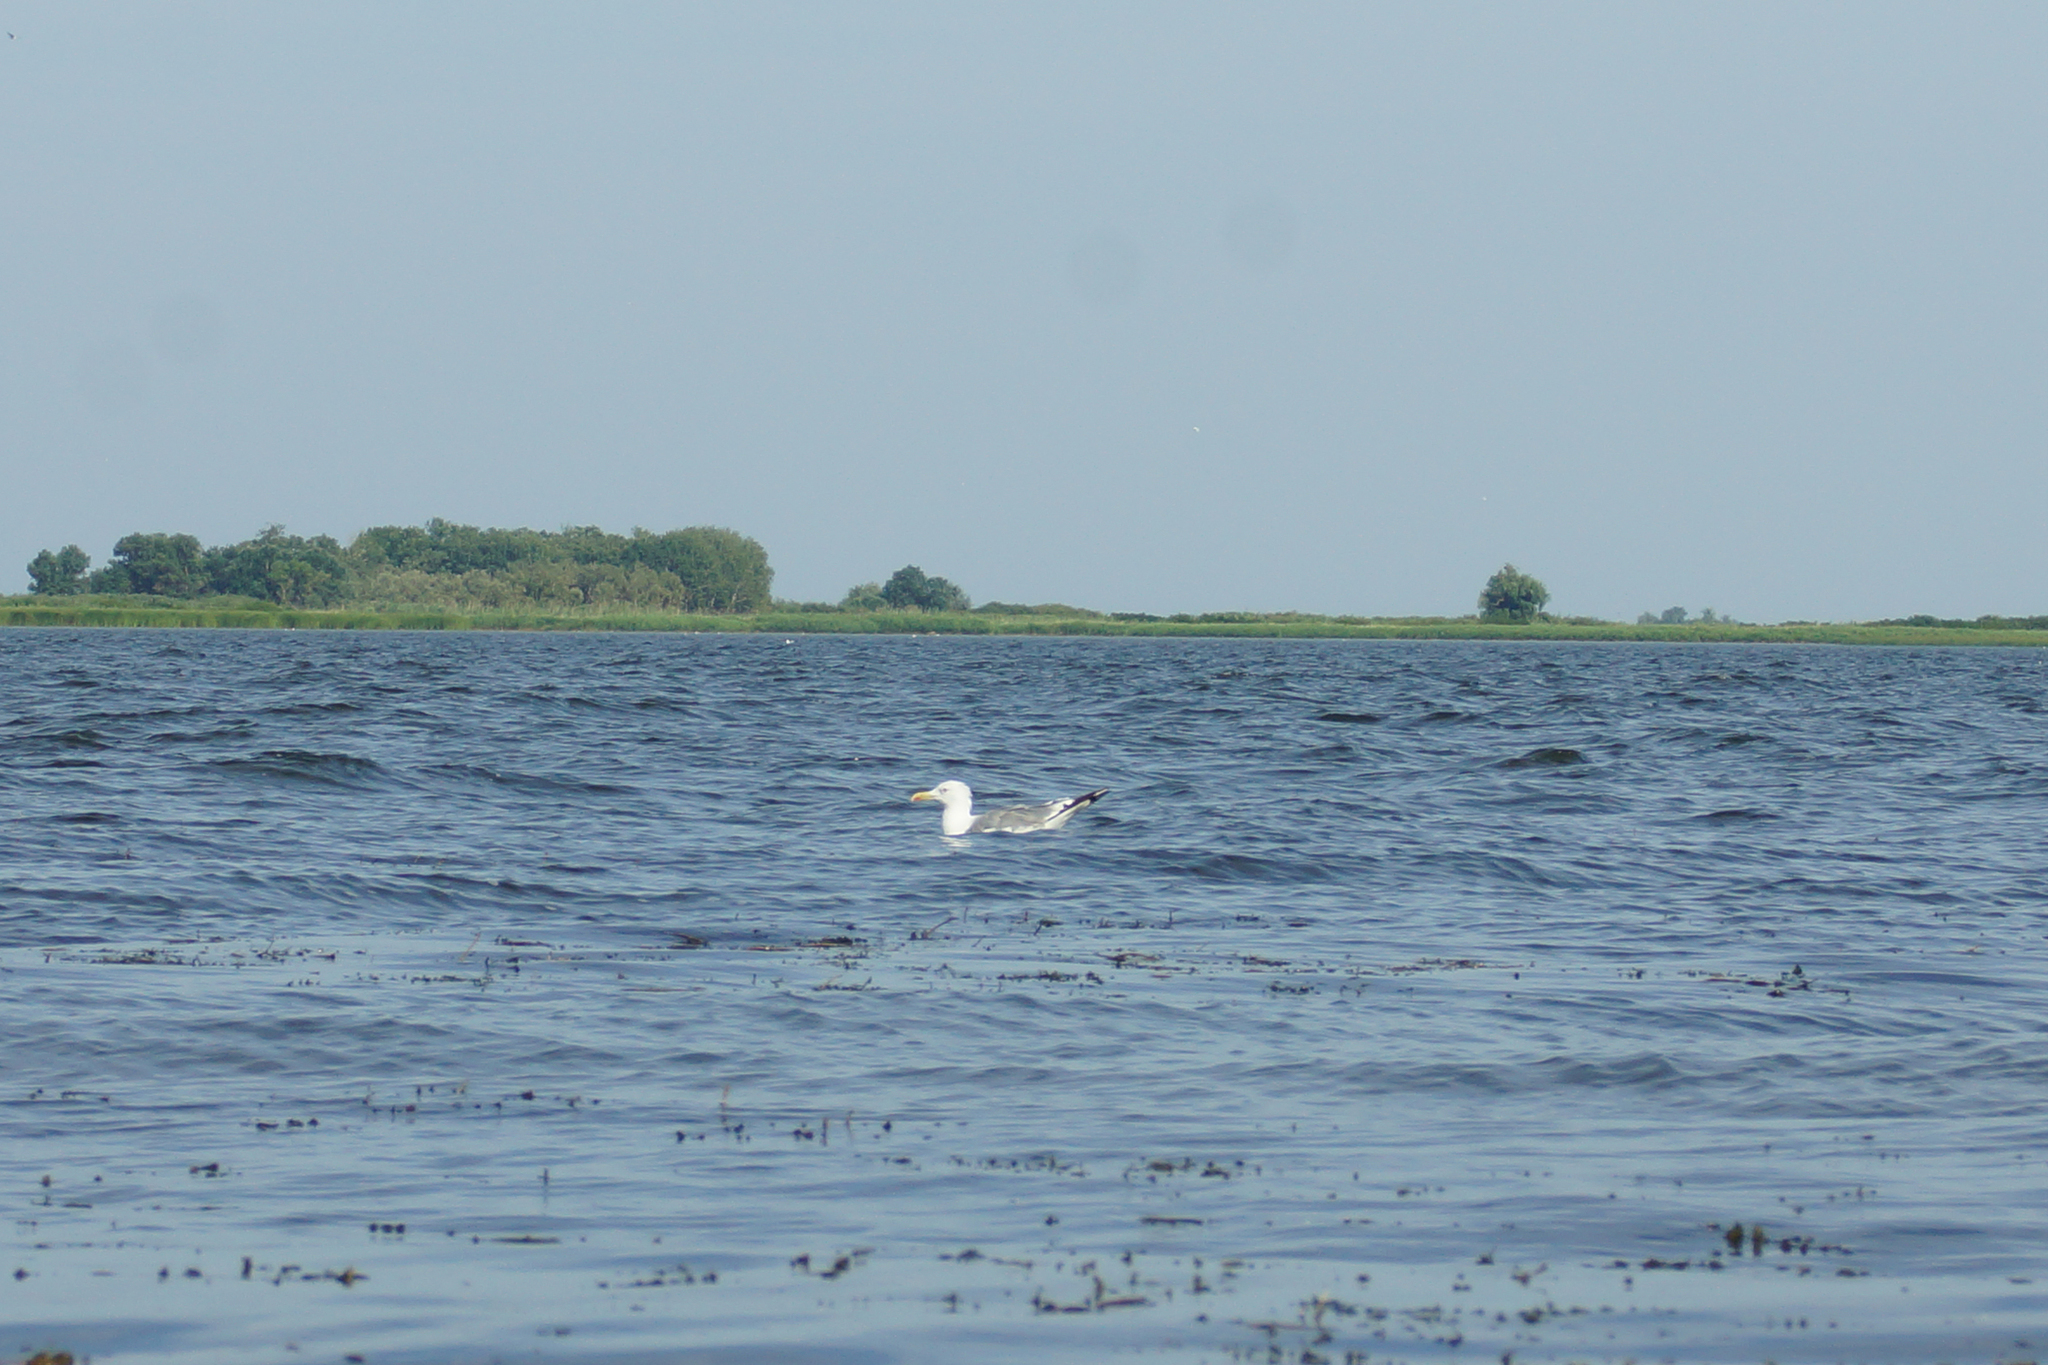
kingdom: Animalia
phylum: Chordata
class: Aves
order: Charadriiformes
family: Laridae
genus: Larus
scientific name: Larus cachinnans
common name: Caspian gull
